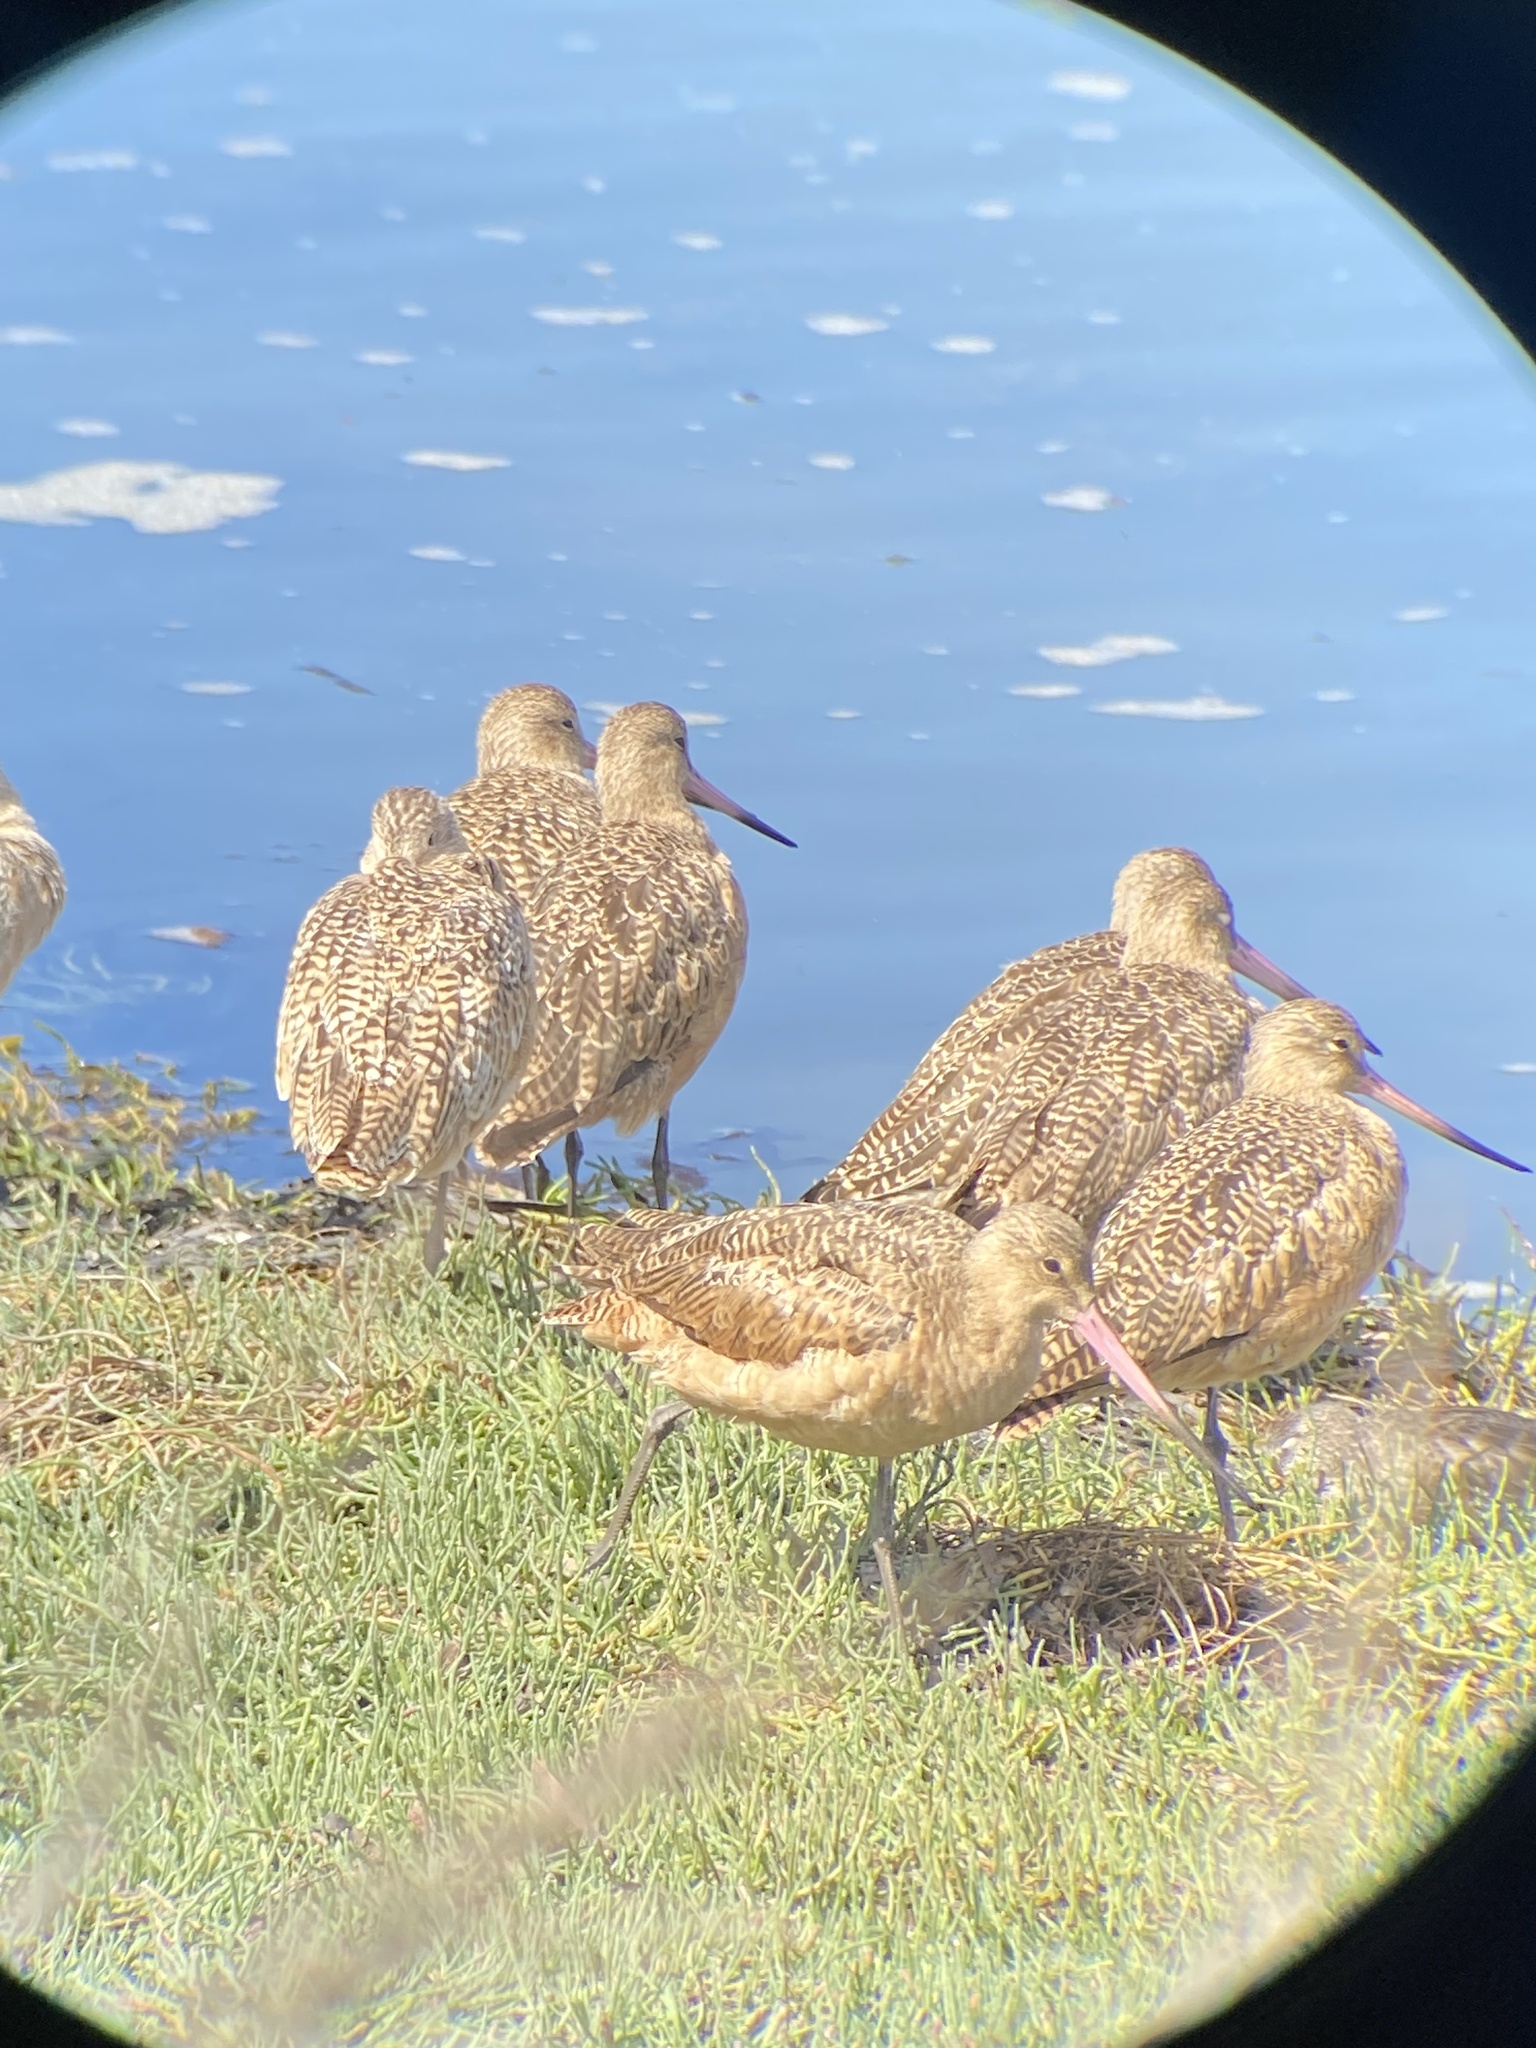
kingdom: Animalia
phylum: Chordata
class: Aves
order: Charadriiformes
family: Scolopacidae
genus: Limosa
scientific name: Limosa fedoa
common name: Marbled godwit
